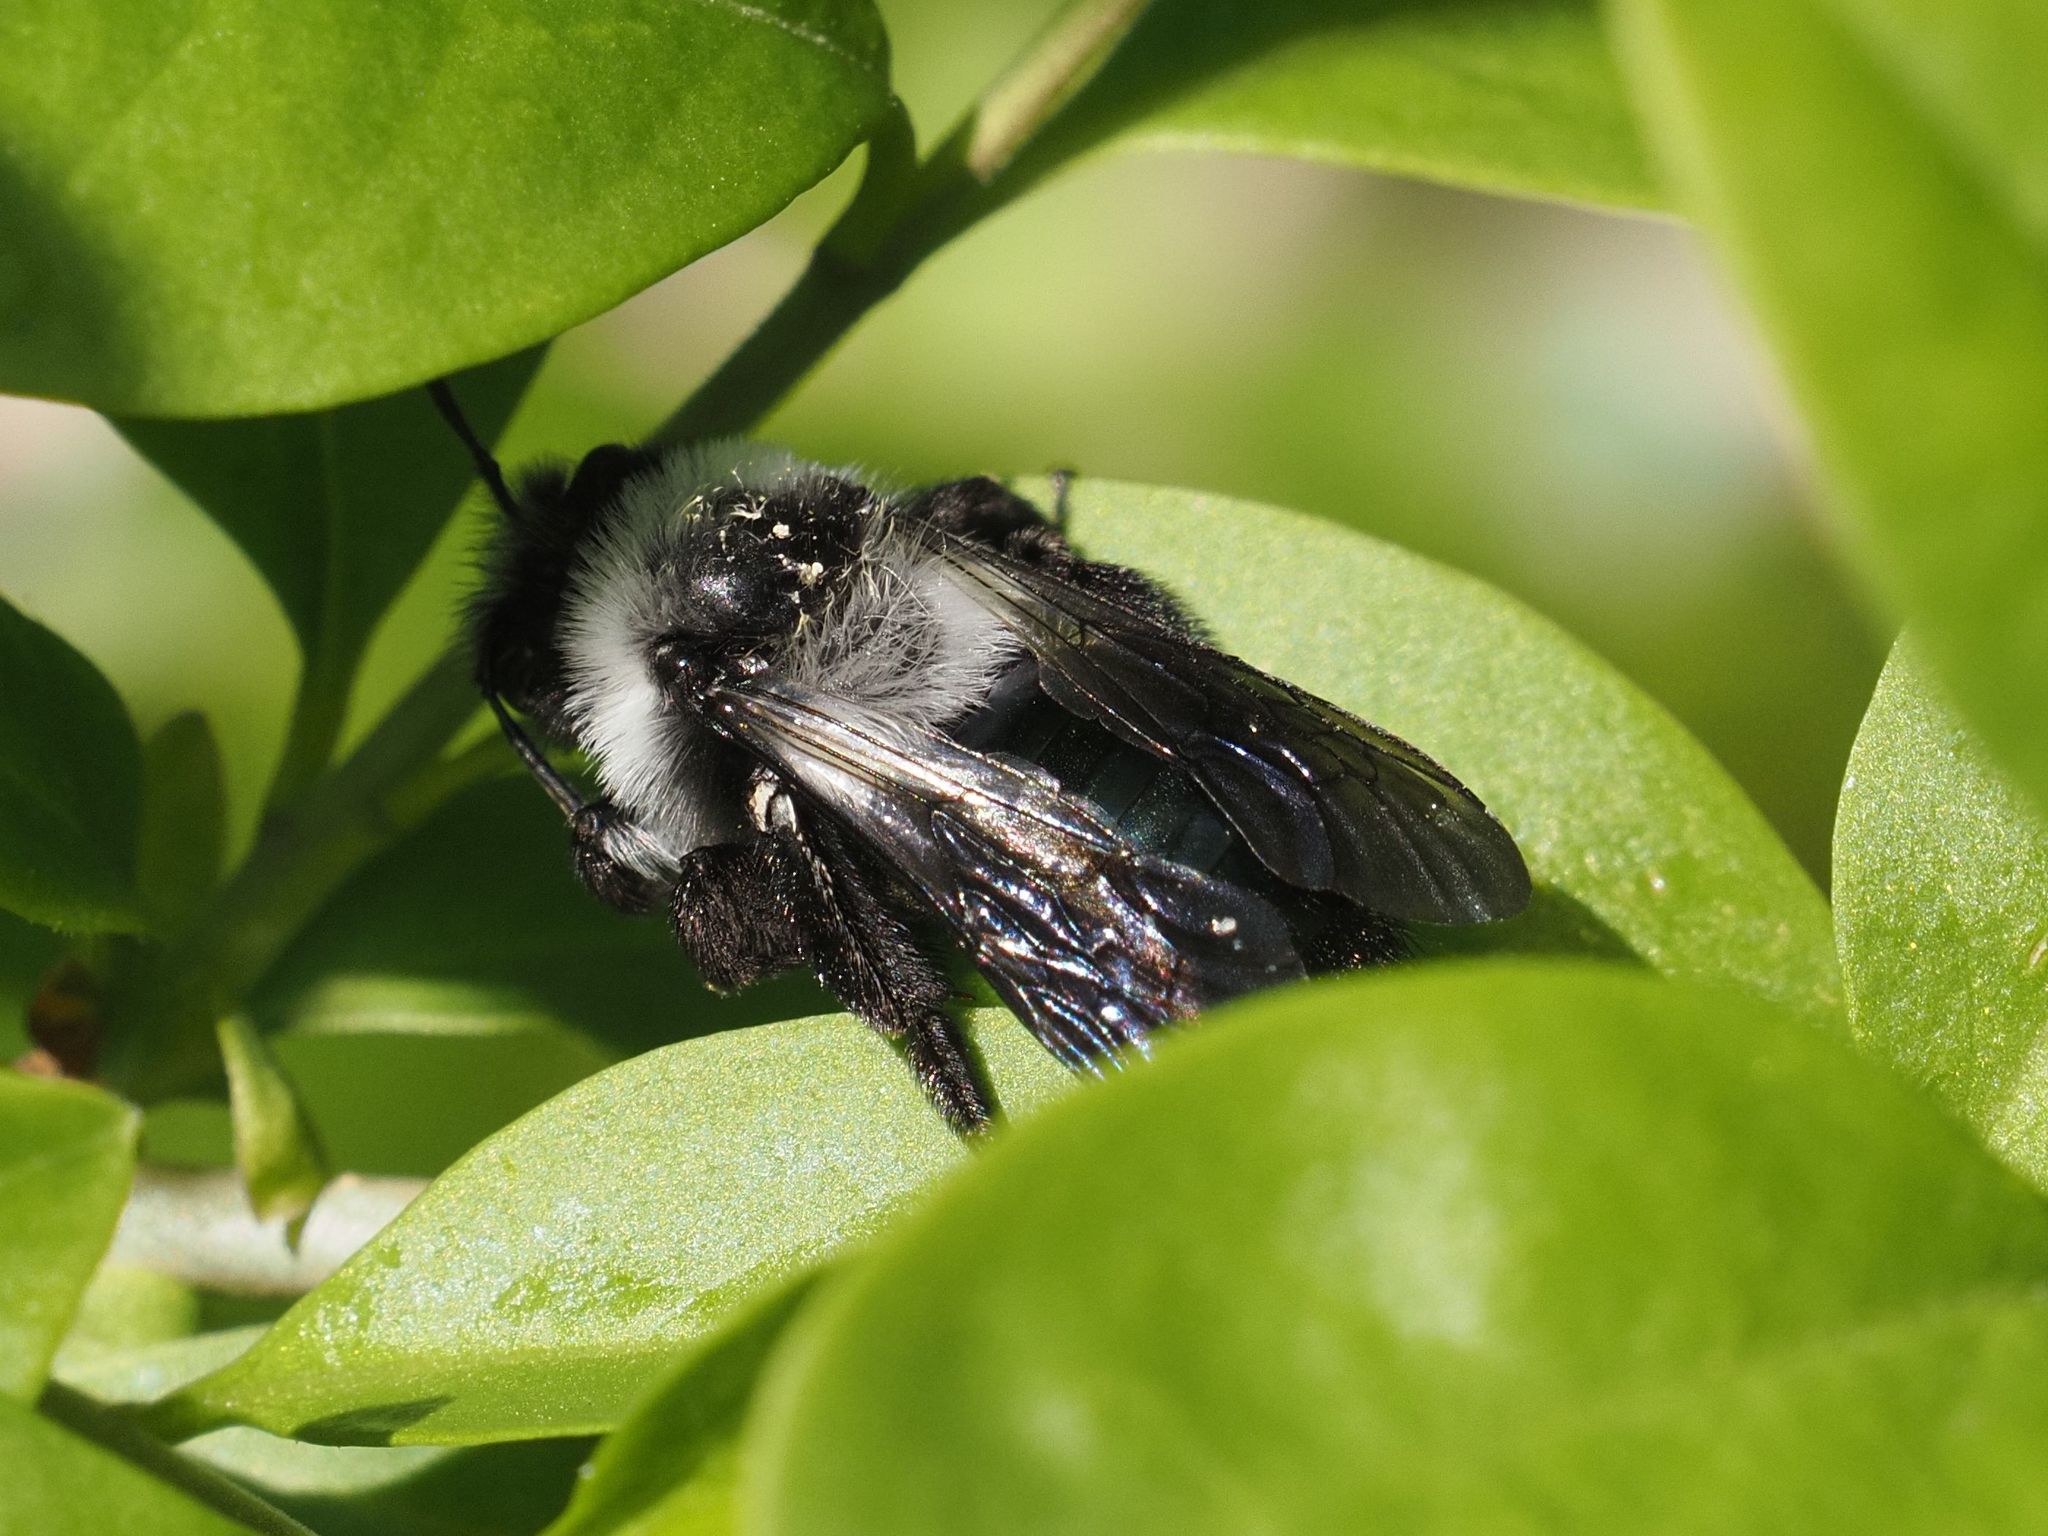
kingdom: Animalia
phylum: Arthropoda
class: Insecta
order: Hymenoptera
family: Andrenidae
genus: Andrena
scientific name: Andrena cineraria
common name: Ashy mining bee
